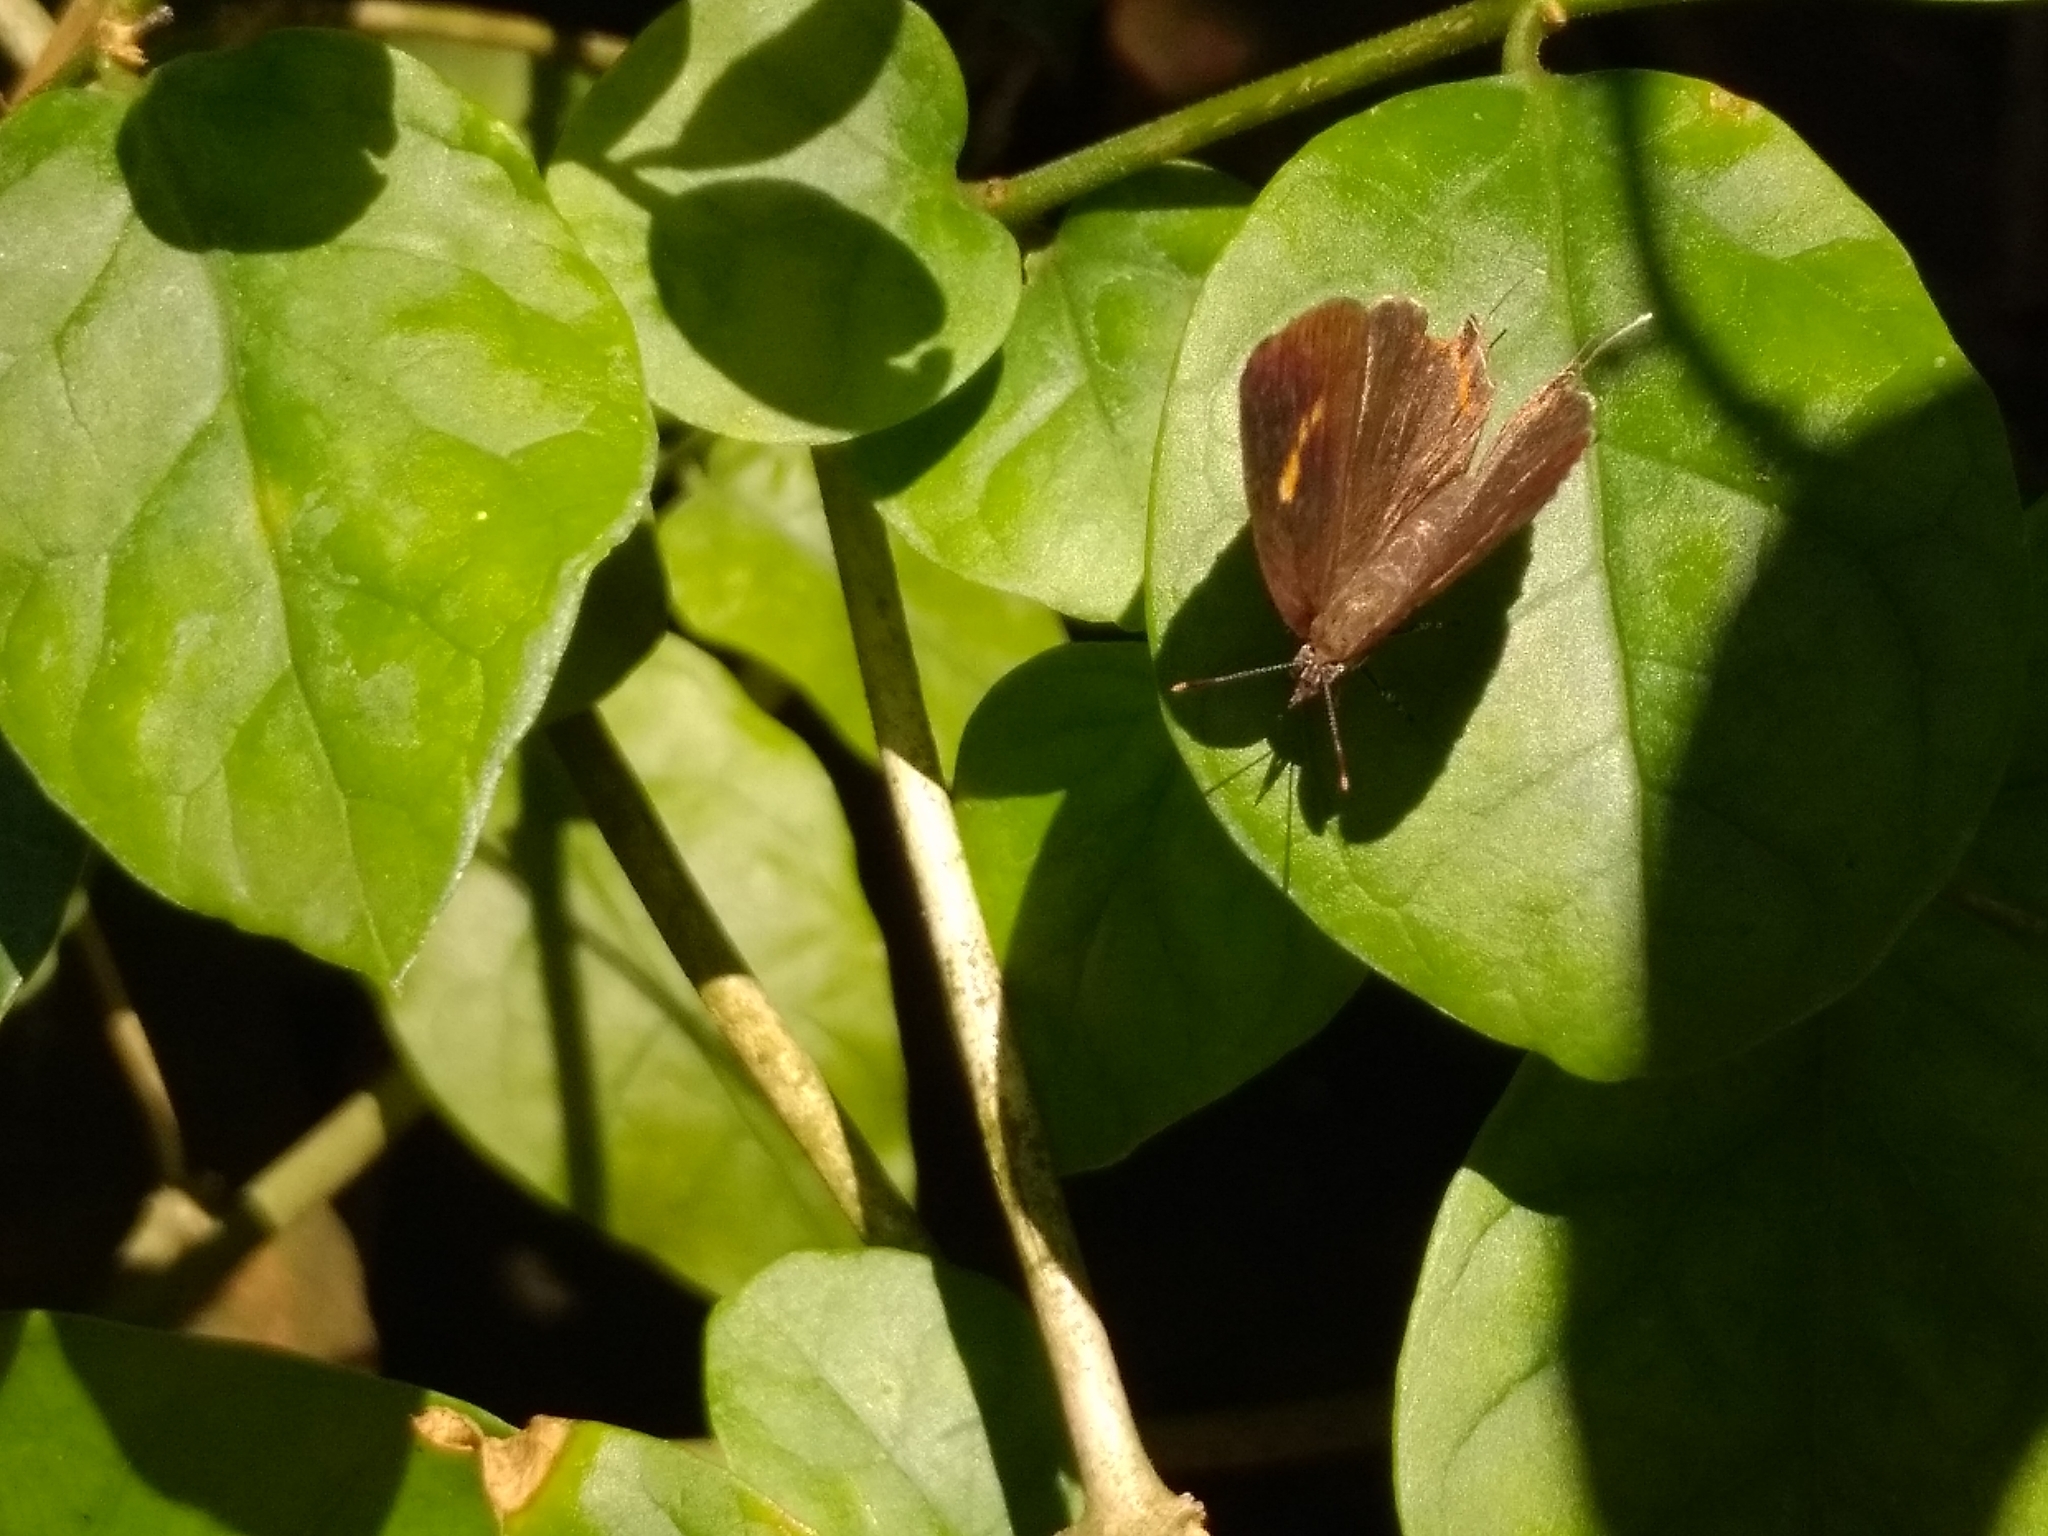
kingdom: Animalia
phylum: Arthropoda
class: Insecta
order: Lepidoptera
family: Lycaenidae
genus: Rathinda
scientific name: Rathinda amor
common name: Monkey puzzle
